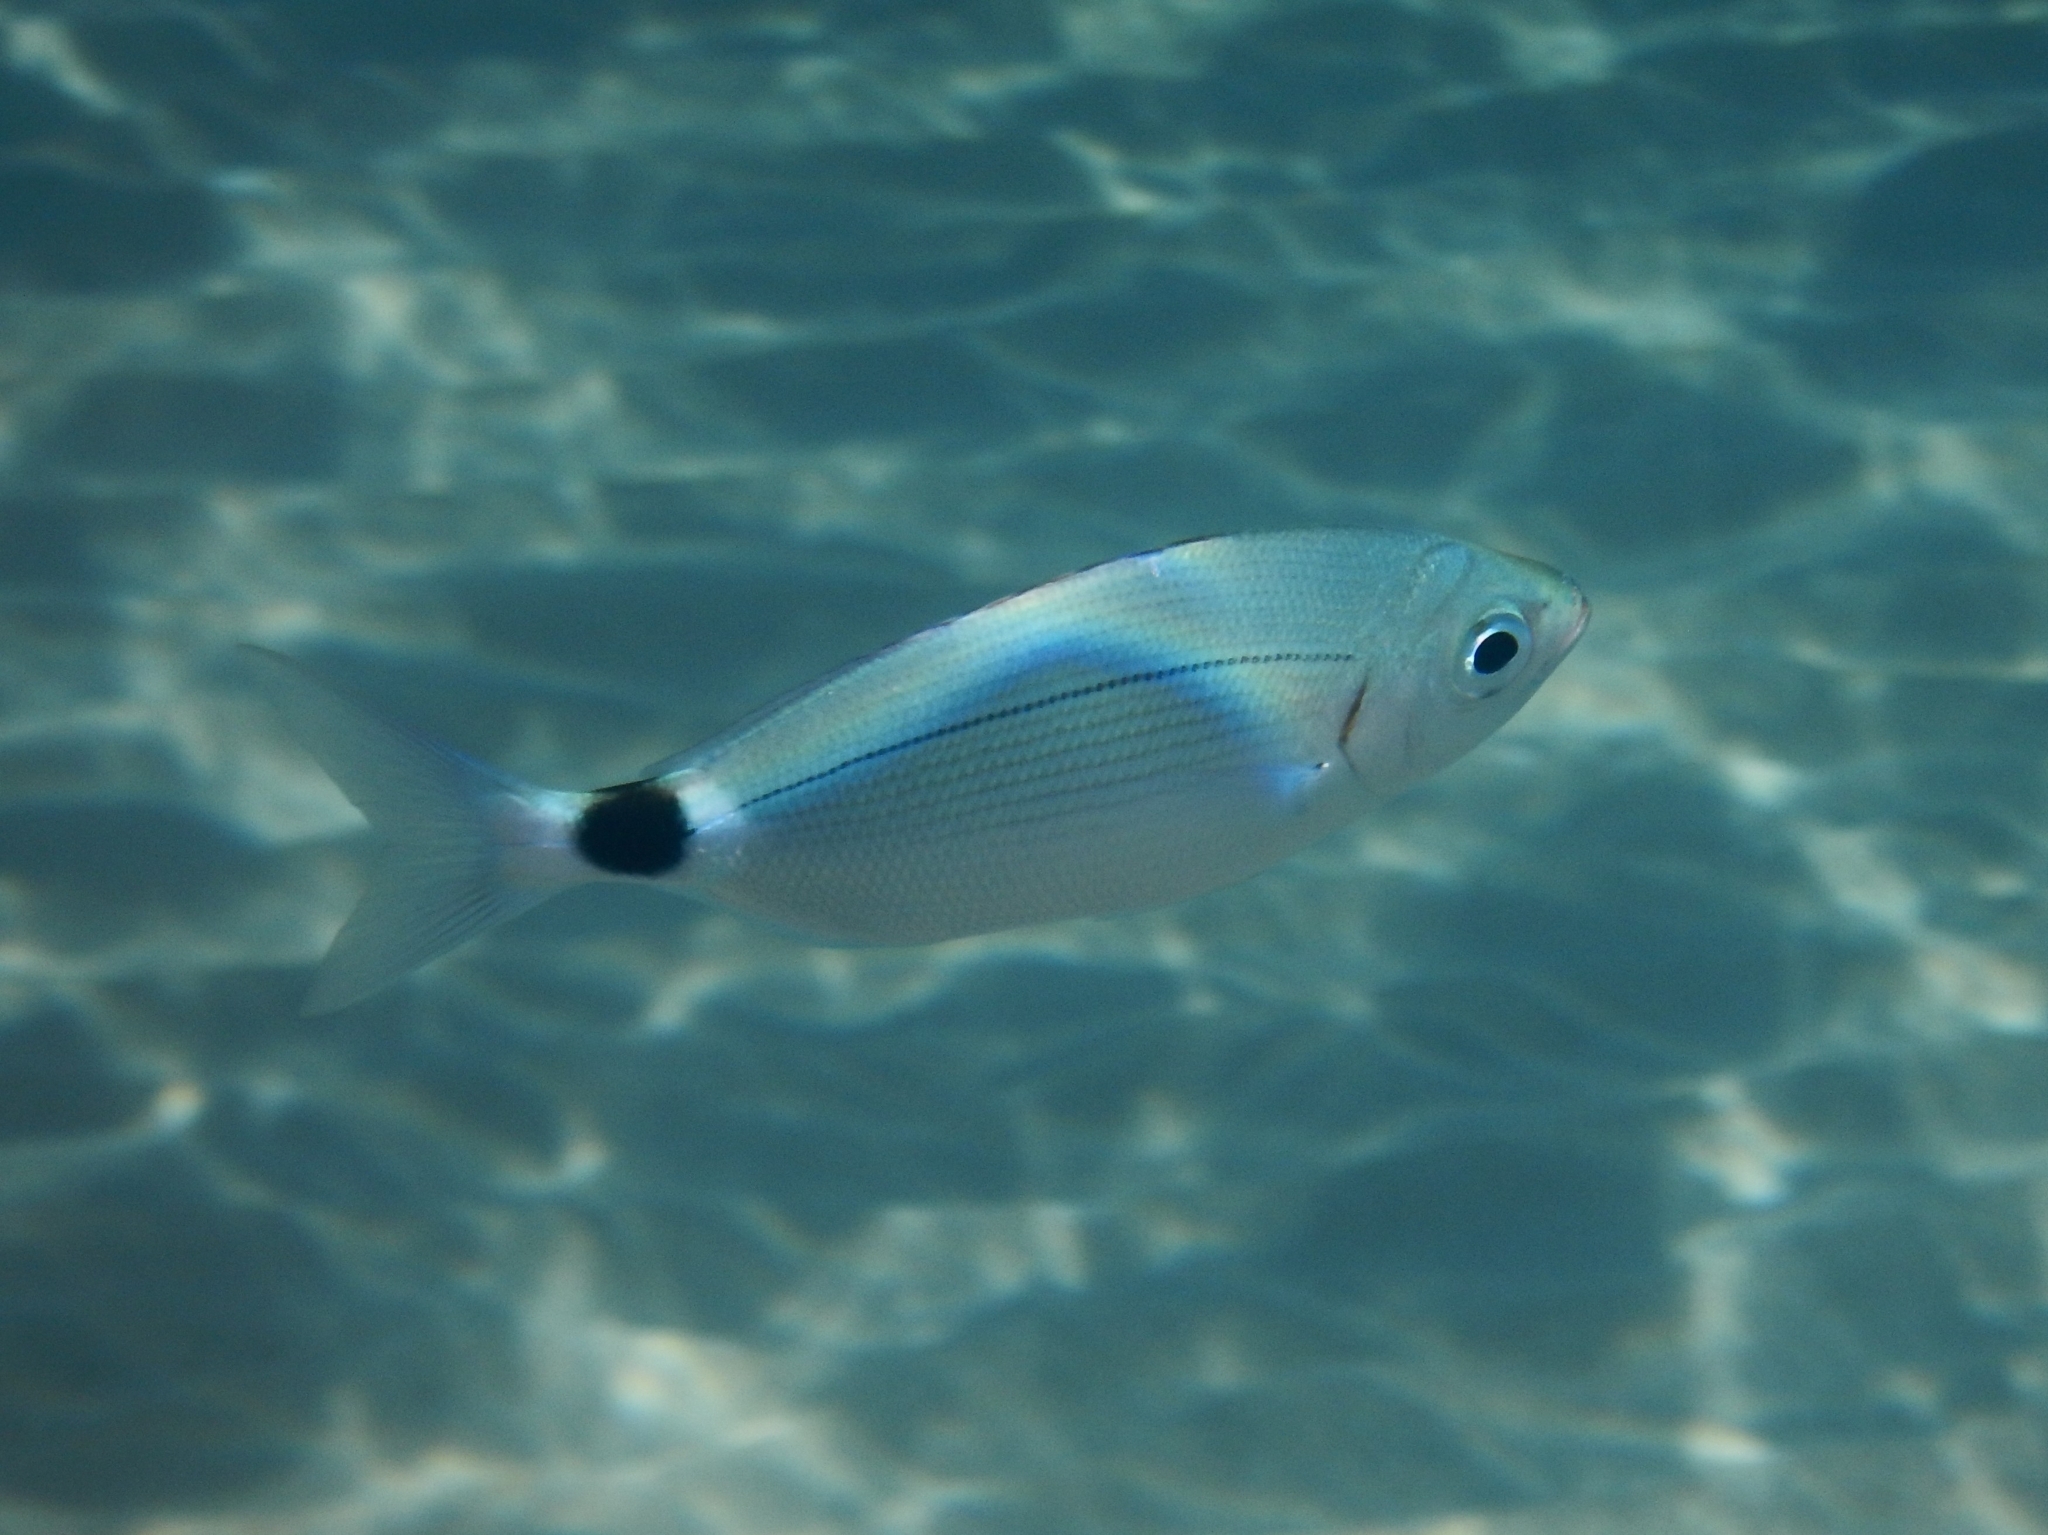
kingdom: Animalia
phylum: Chordata
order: Perciformes
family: Sparidae
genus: Oblada
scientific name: Oblada melanura
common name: Saddled seabream
